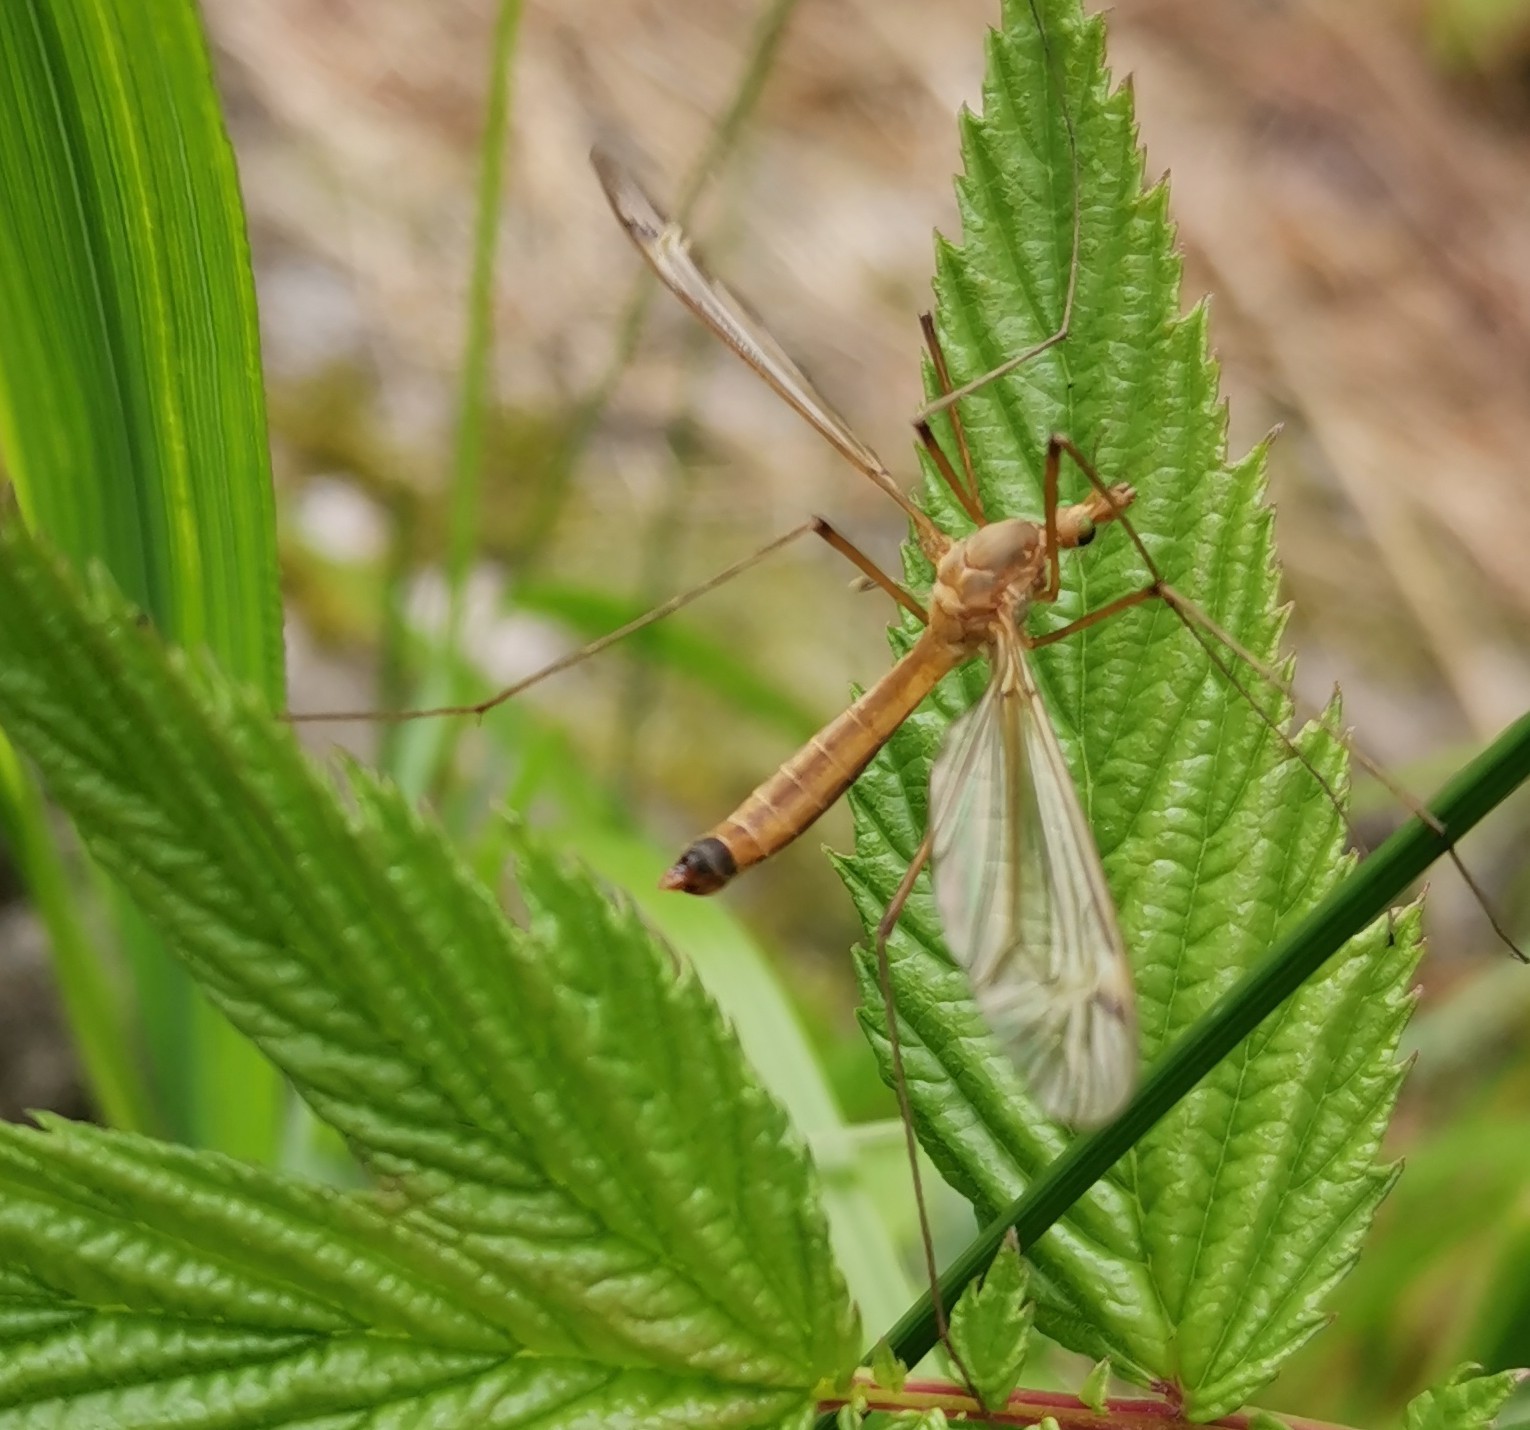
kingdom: Animalia
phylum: Arthropoda
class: Insecta
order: Diptera
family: Tipulidae
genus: Tipula
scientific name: Tipula fascipennis
